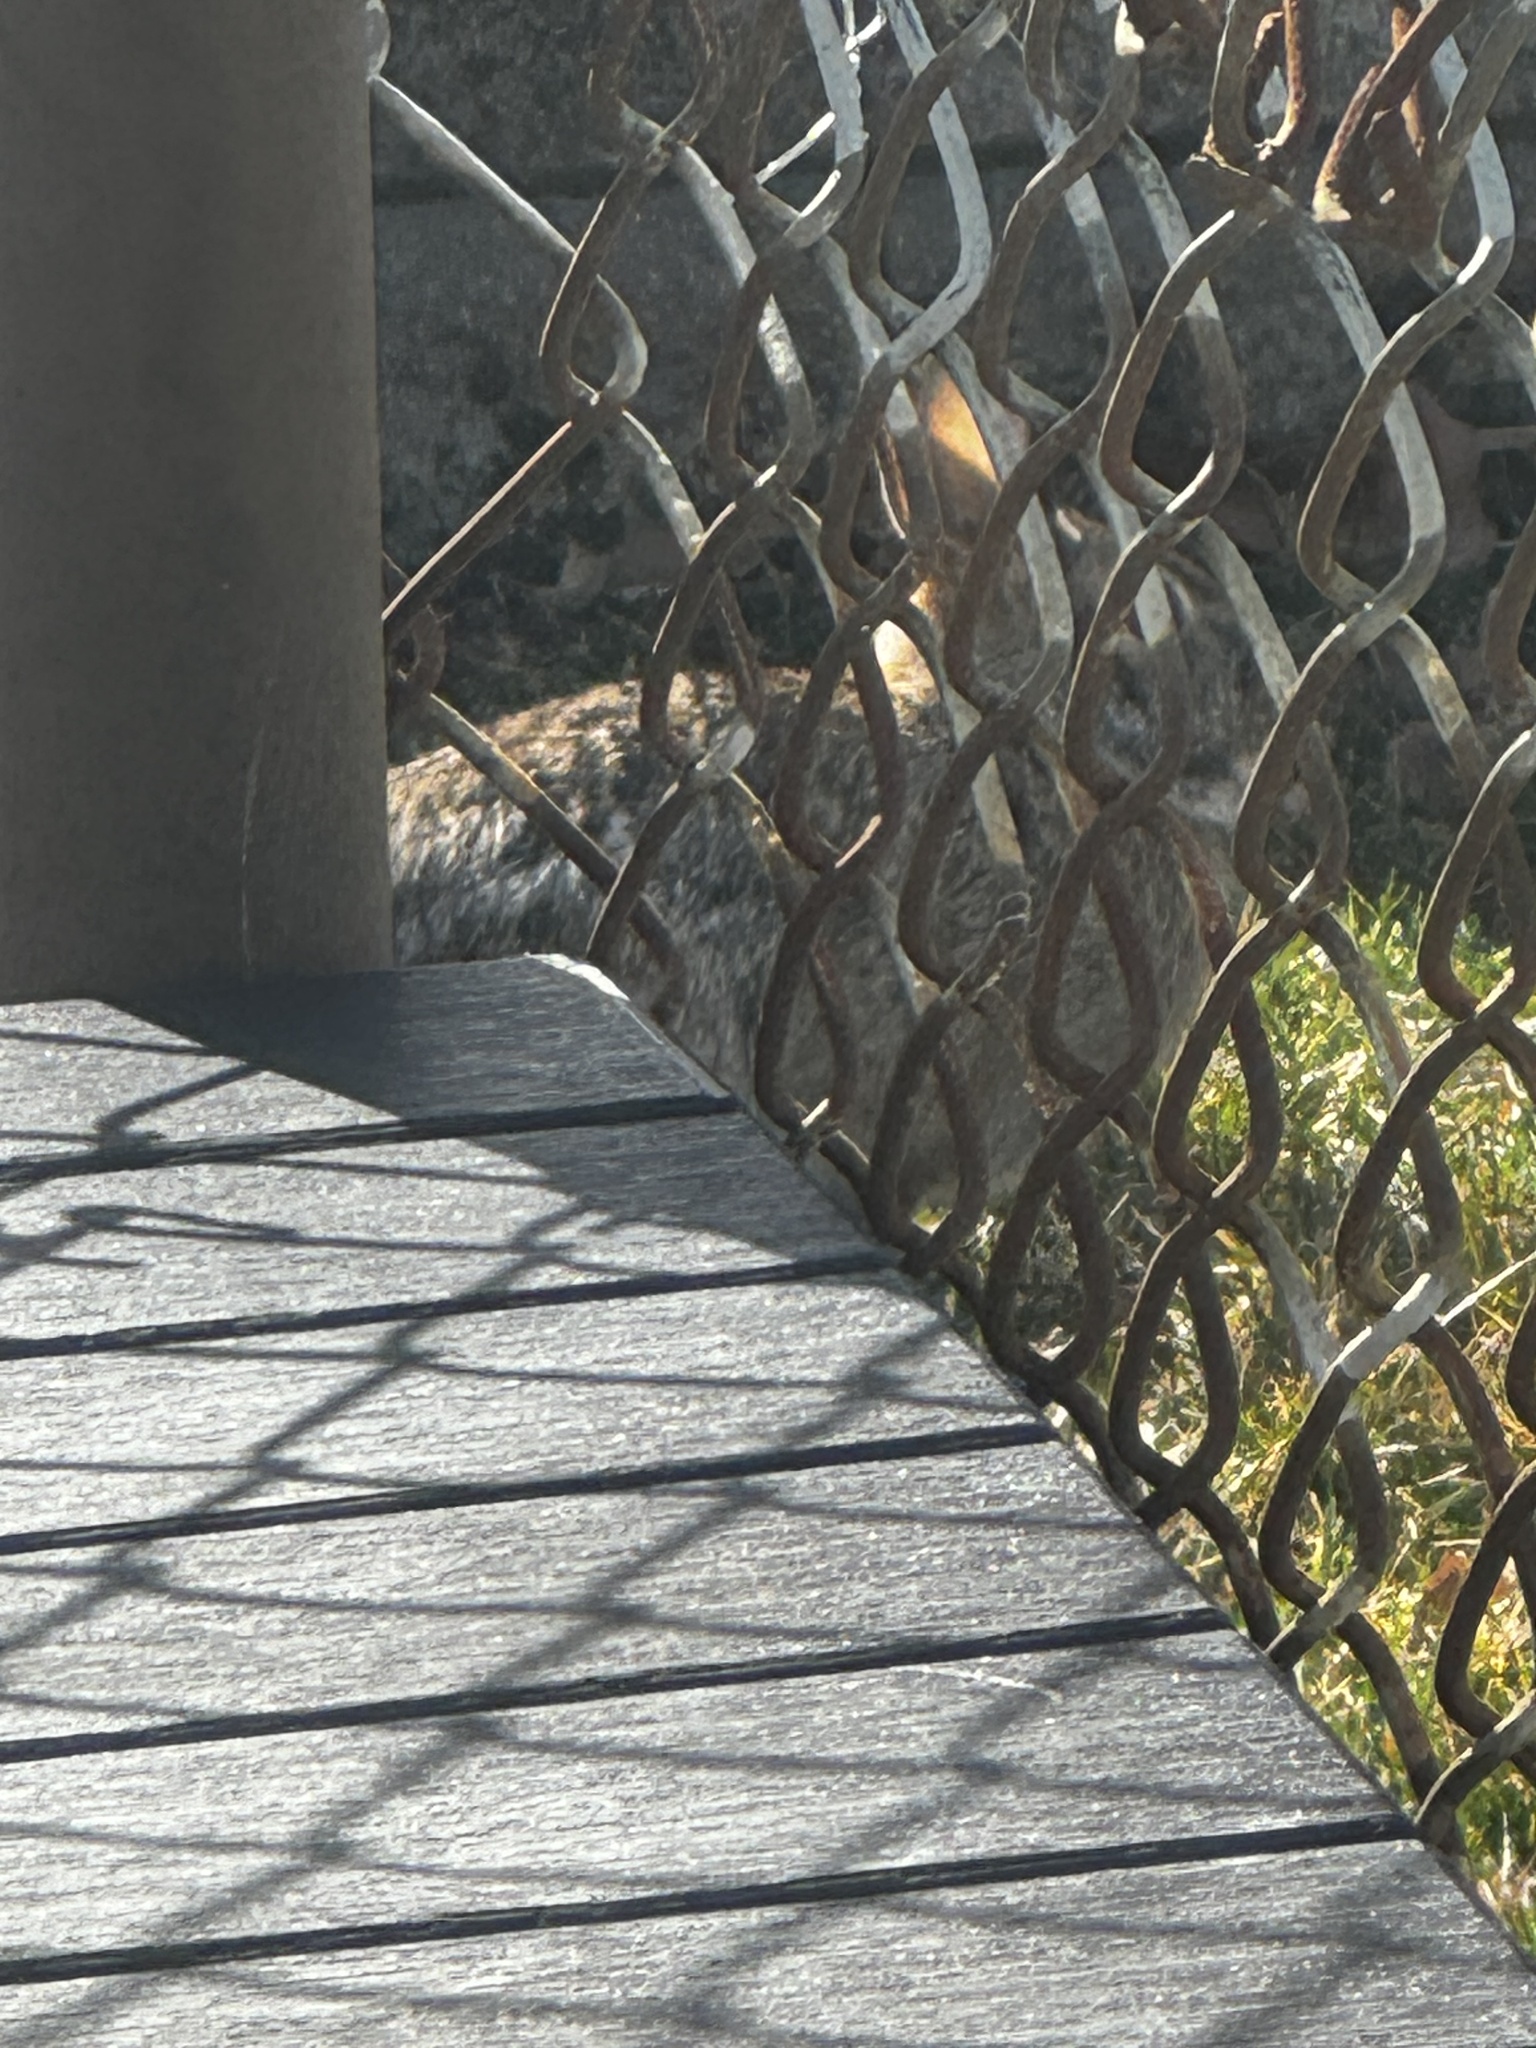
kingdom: Animalia
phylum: Chordata
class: Mammalia
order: Lagomorpha
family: Leporidae
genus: Sylvilagus
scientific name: Sylvilagus floridanus
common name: Eastern cottontail
